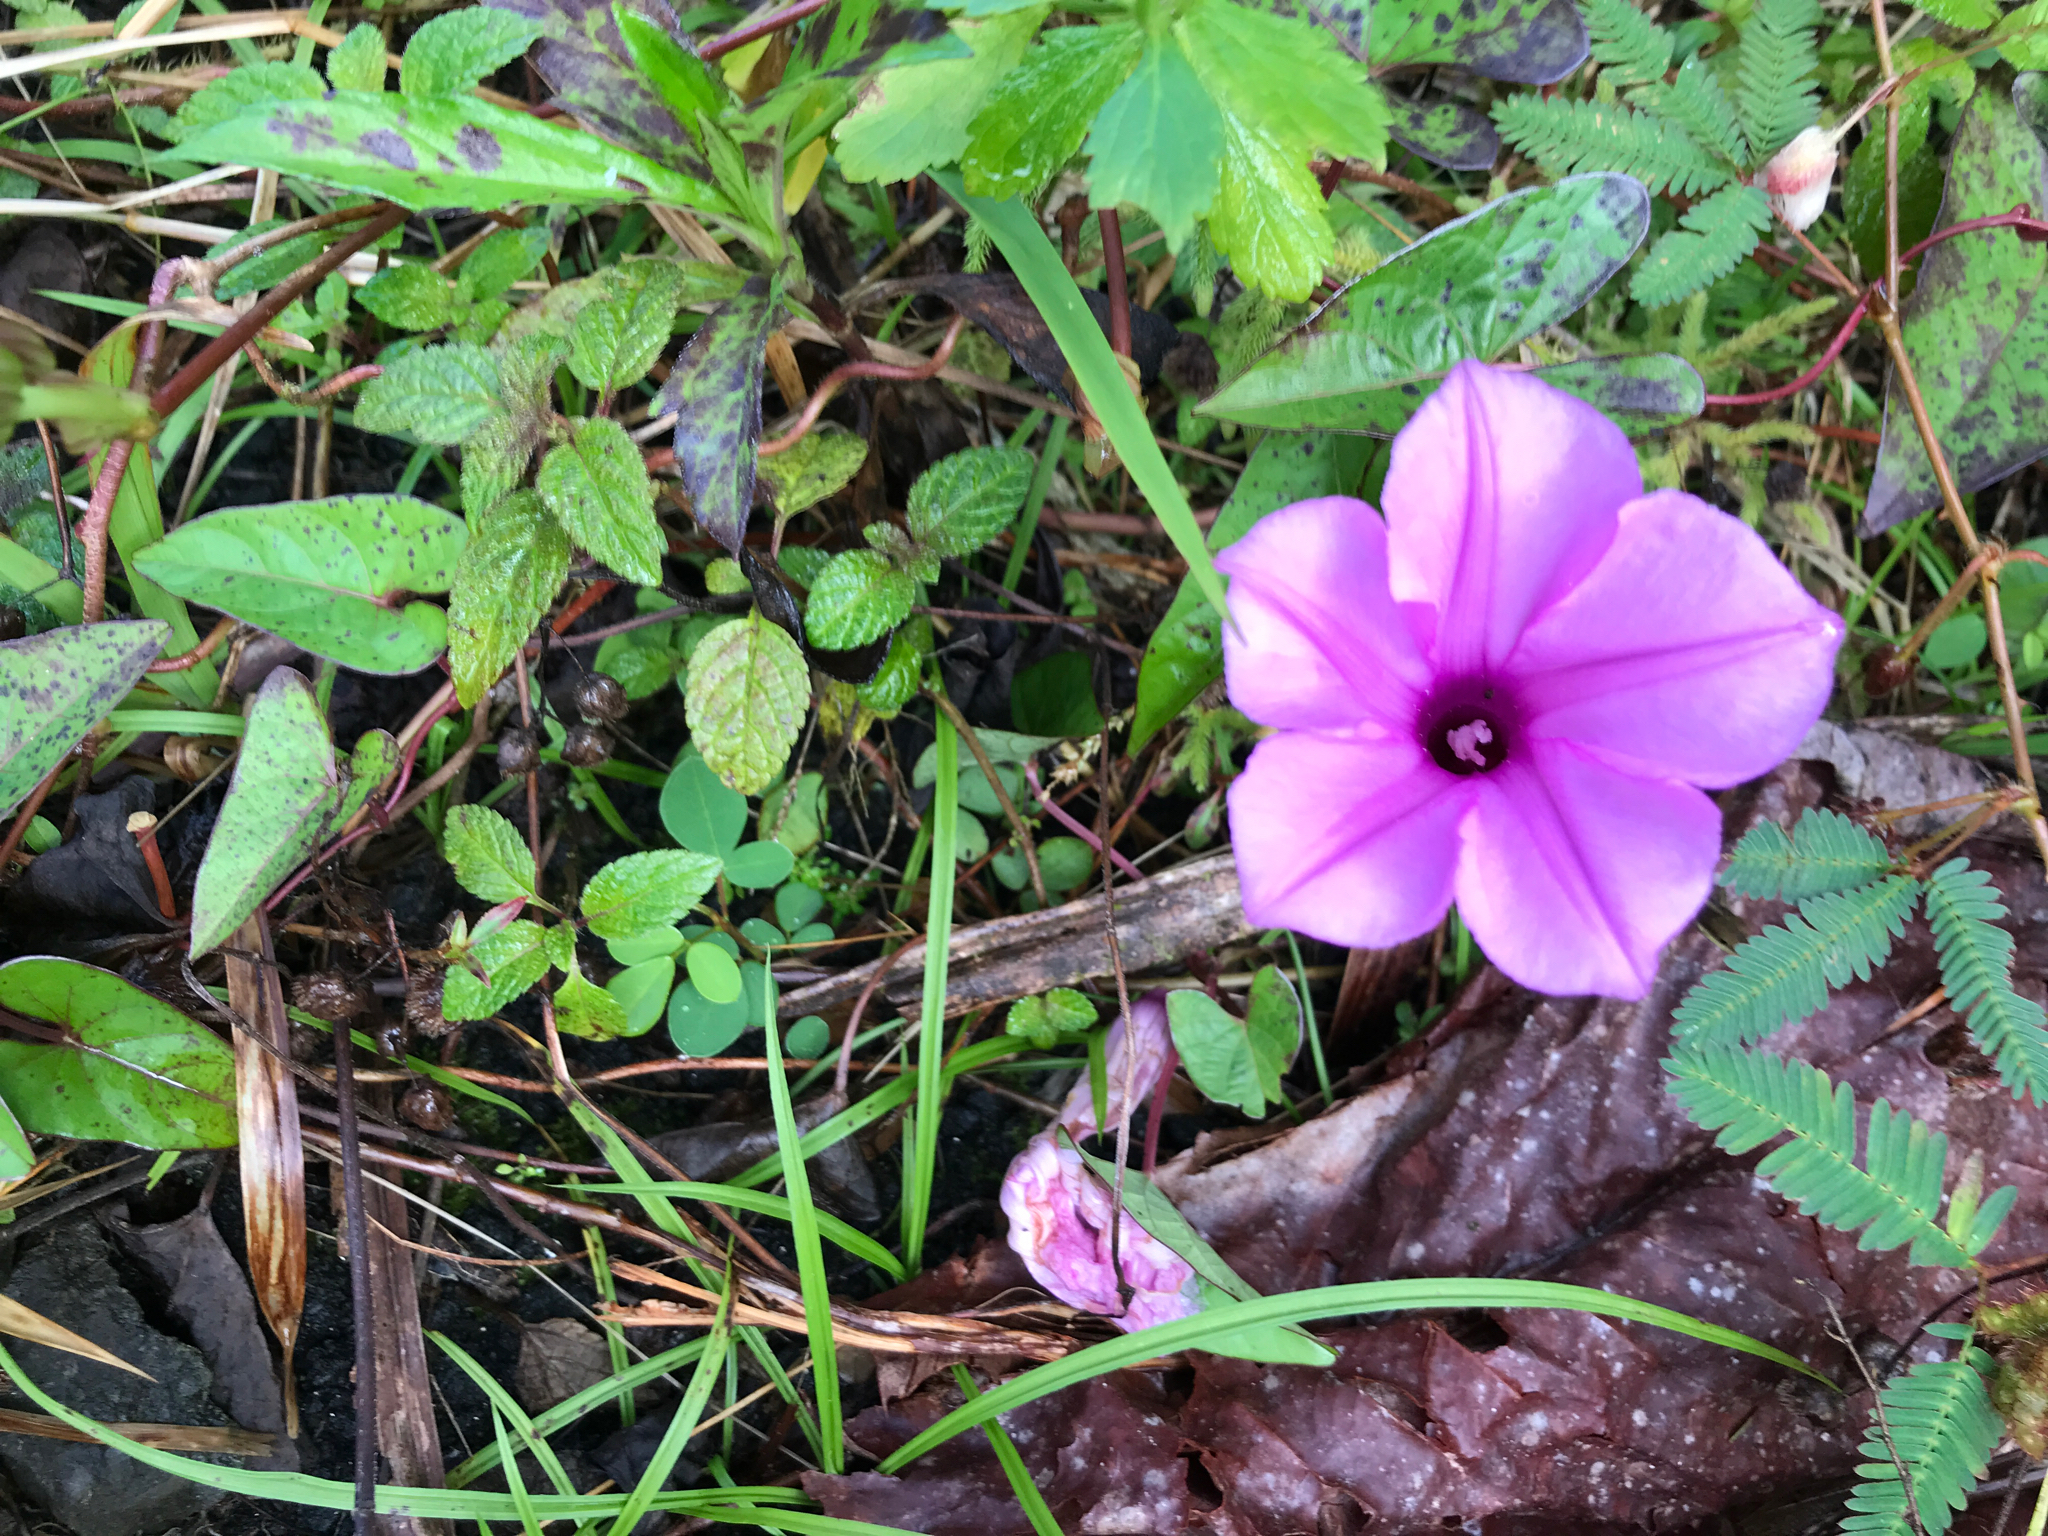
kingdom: Plantae
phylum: Tracheophyta
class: Magnoliopsida
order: Solanales
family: Convolvulaceae
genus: Ipomoea
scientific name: Ipomoea setifera
